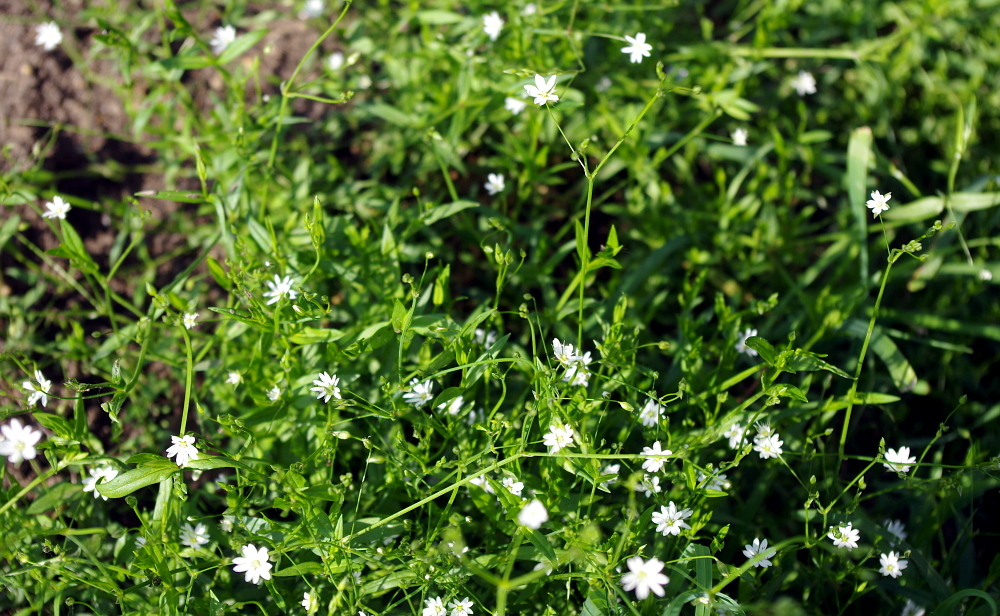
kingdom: Plantae
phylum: Tracheophyta
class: Magnoliopsida
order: Caryophyllales
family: Caryophyllaceae
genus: Stellaria
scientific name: Stellaria graminea
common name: Grass-like starwort
